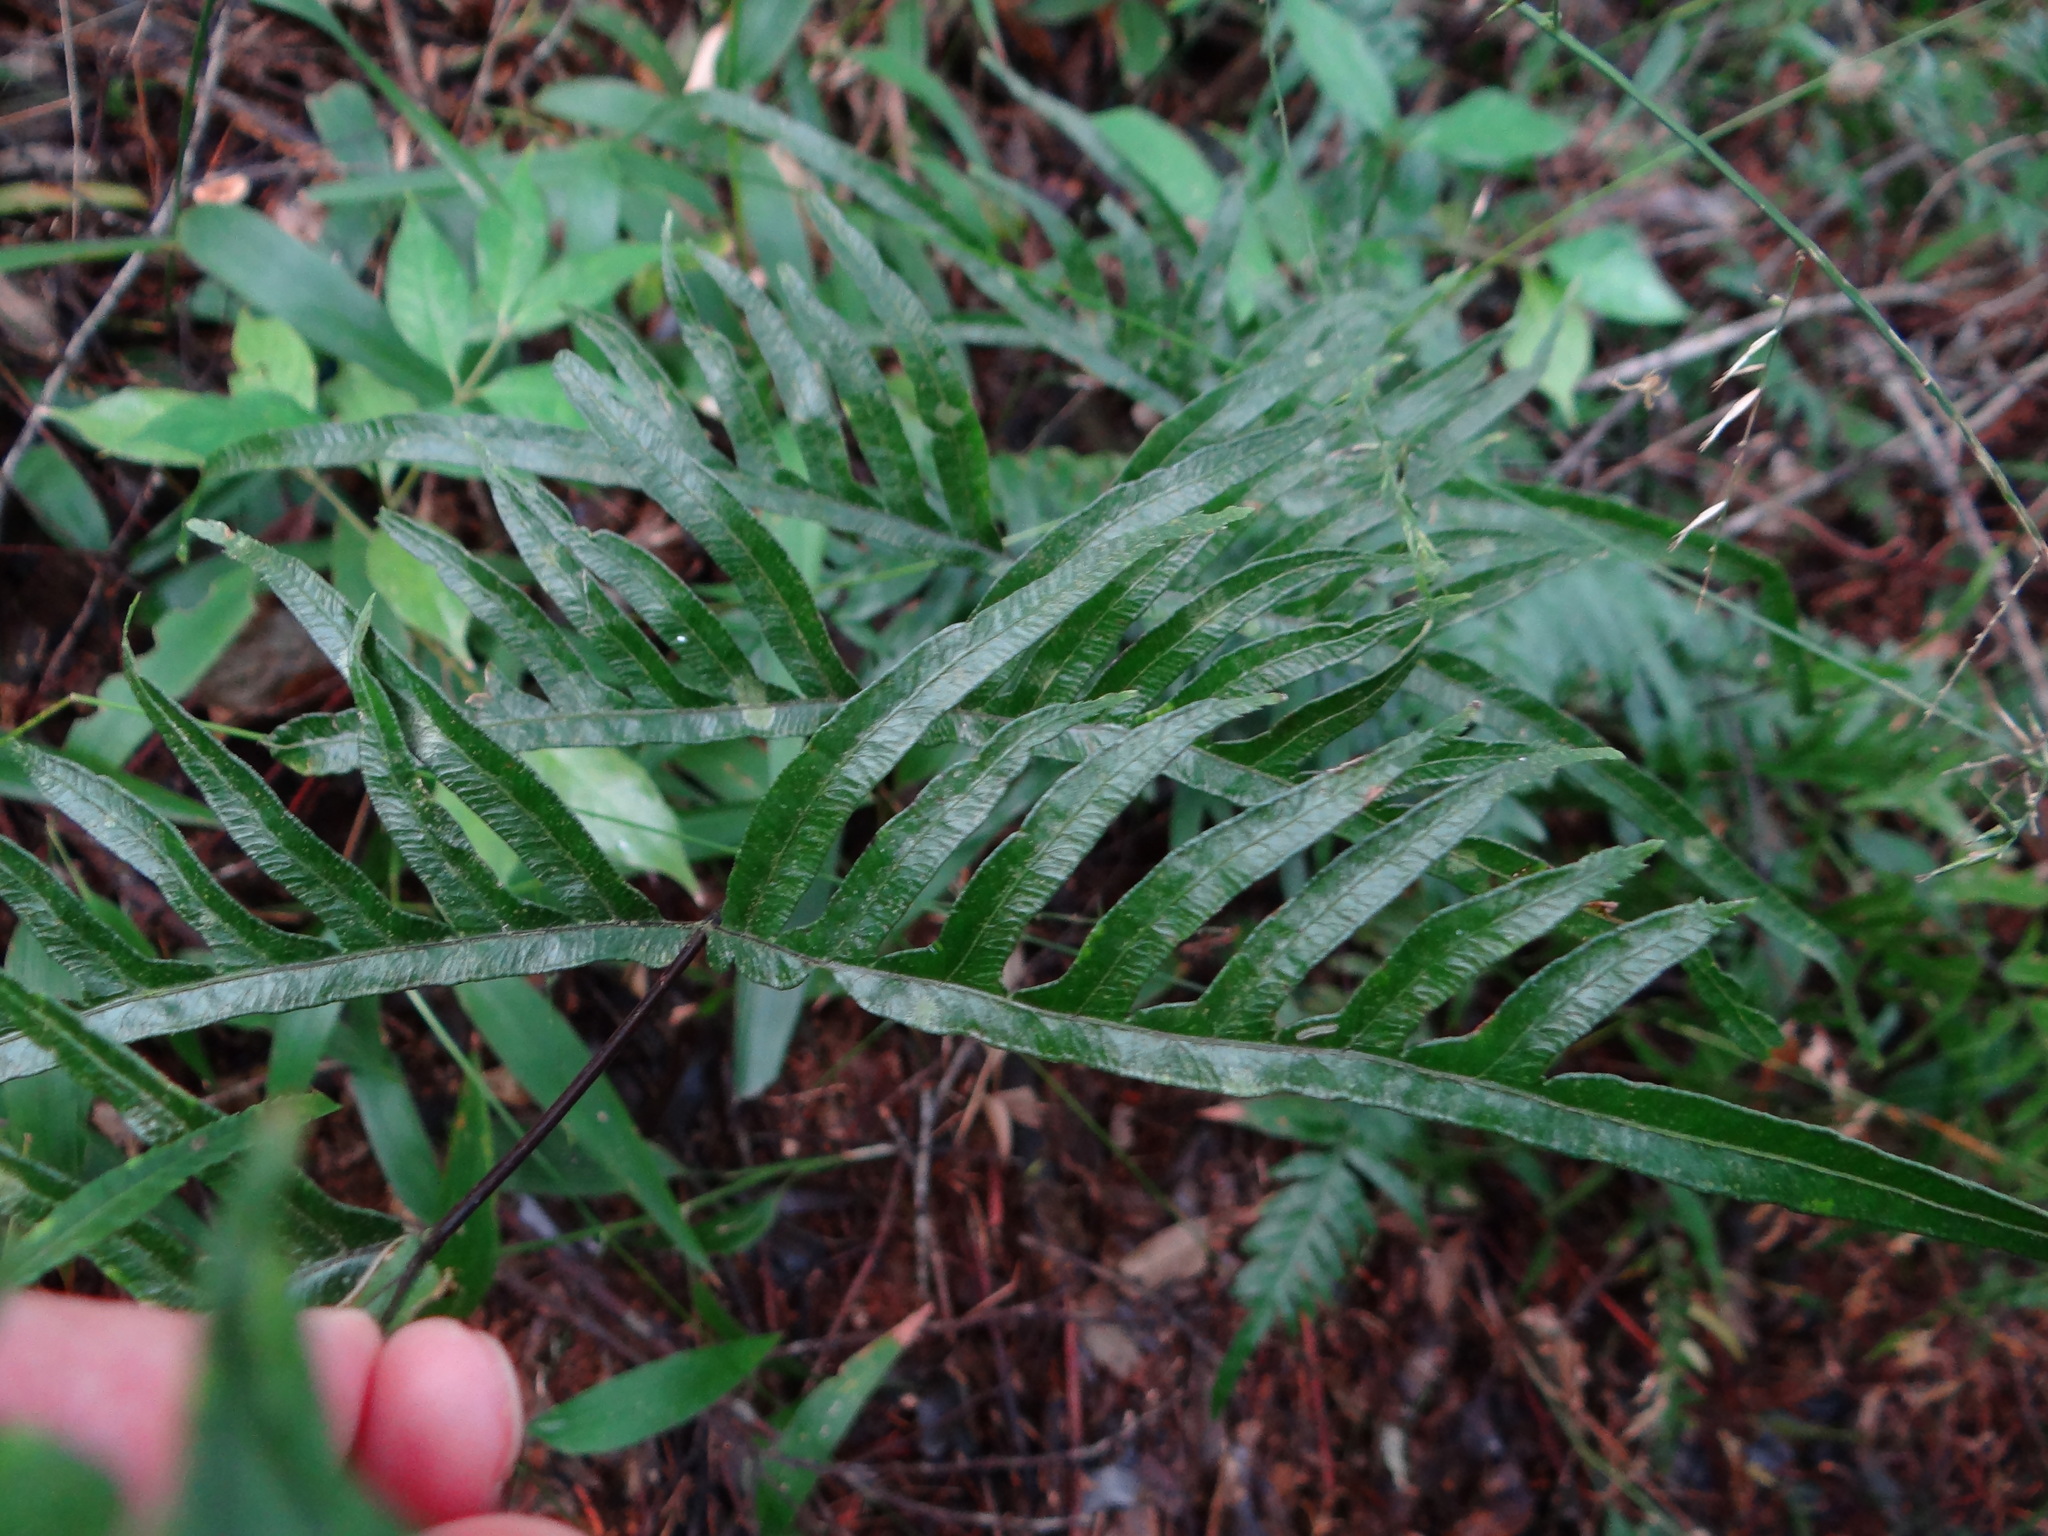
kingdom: Plantae
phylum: Tracheophyta
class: Polypodiopsida
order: Polypodiales
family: Pteridaceae
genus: Pteris
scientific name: Pteris semipinnata
